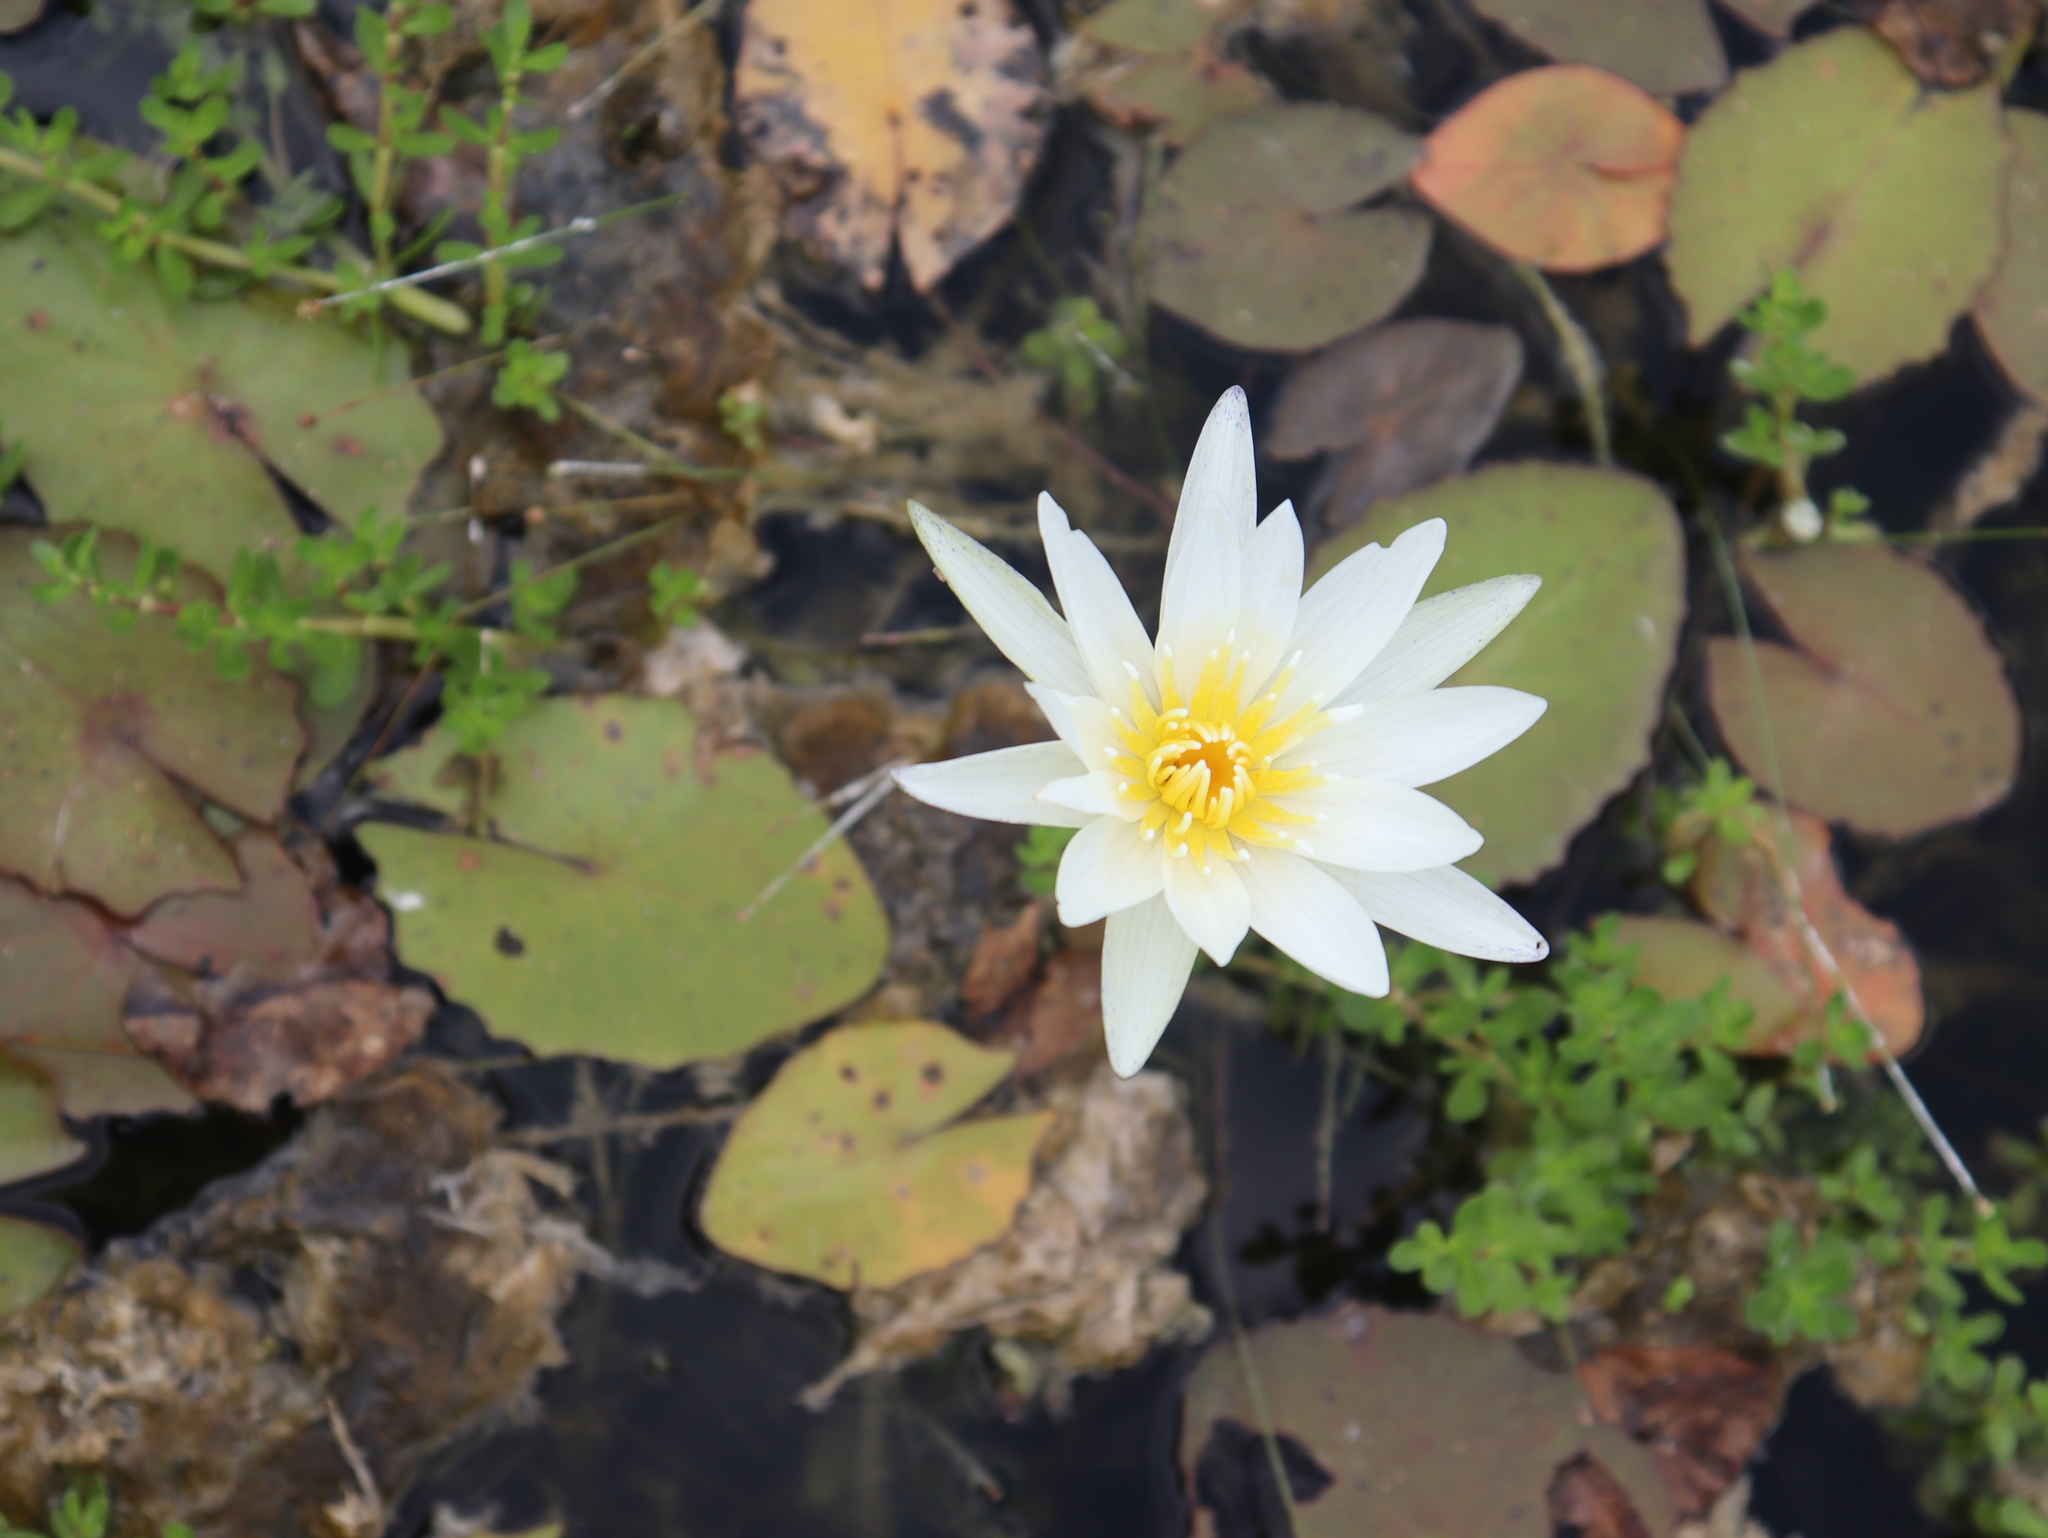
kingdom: Plantae
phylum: Tracheophyta
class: Magnoliopsida
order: Nymphaeales
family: Nymphaeaceae
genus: Nymphaea
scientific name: Nymphaea pulchella
